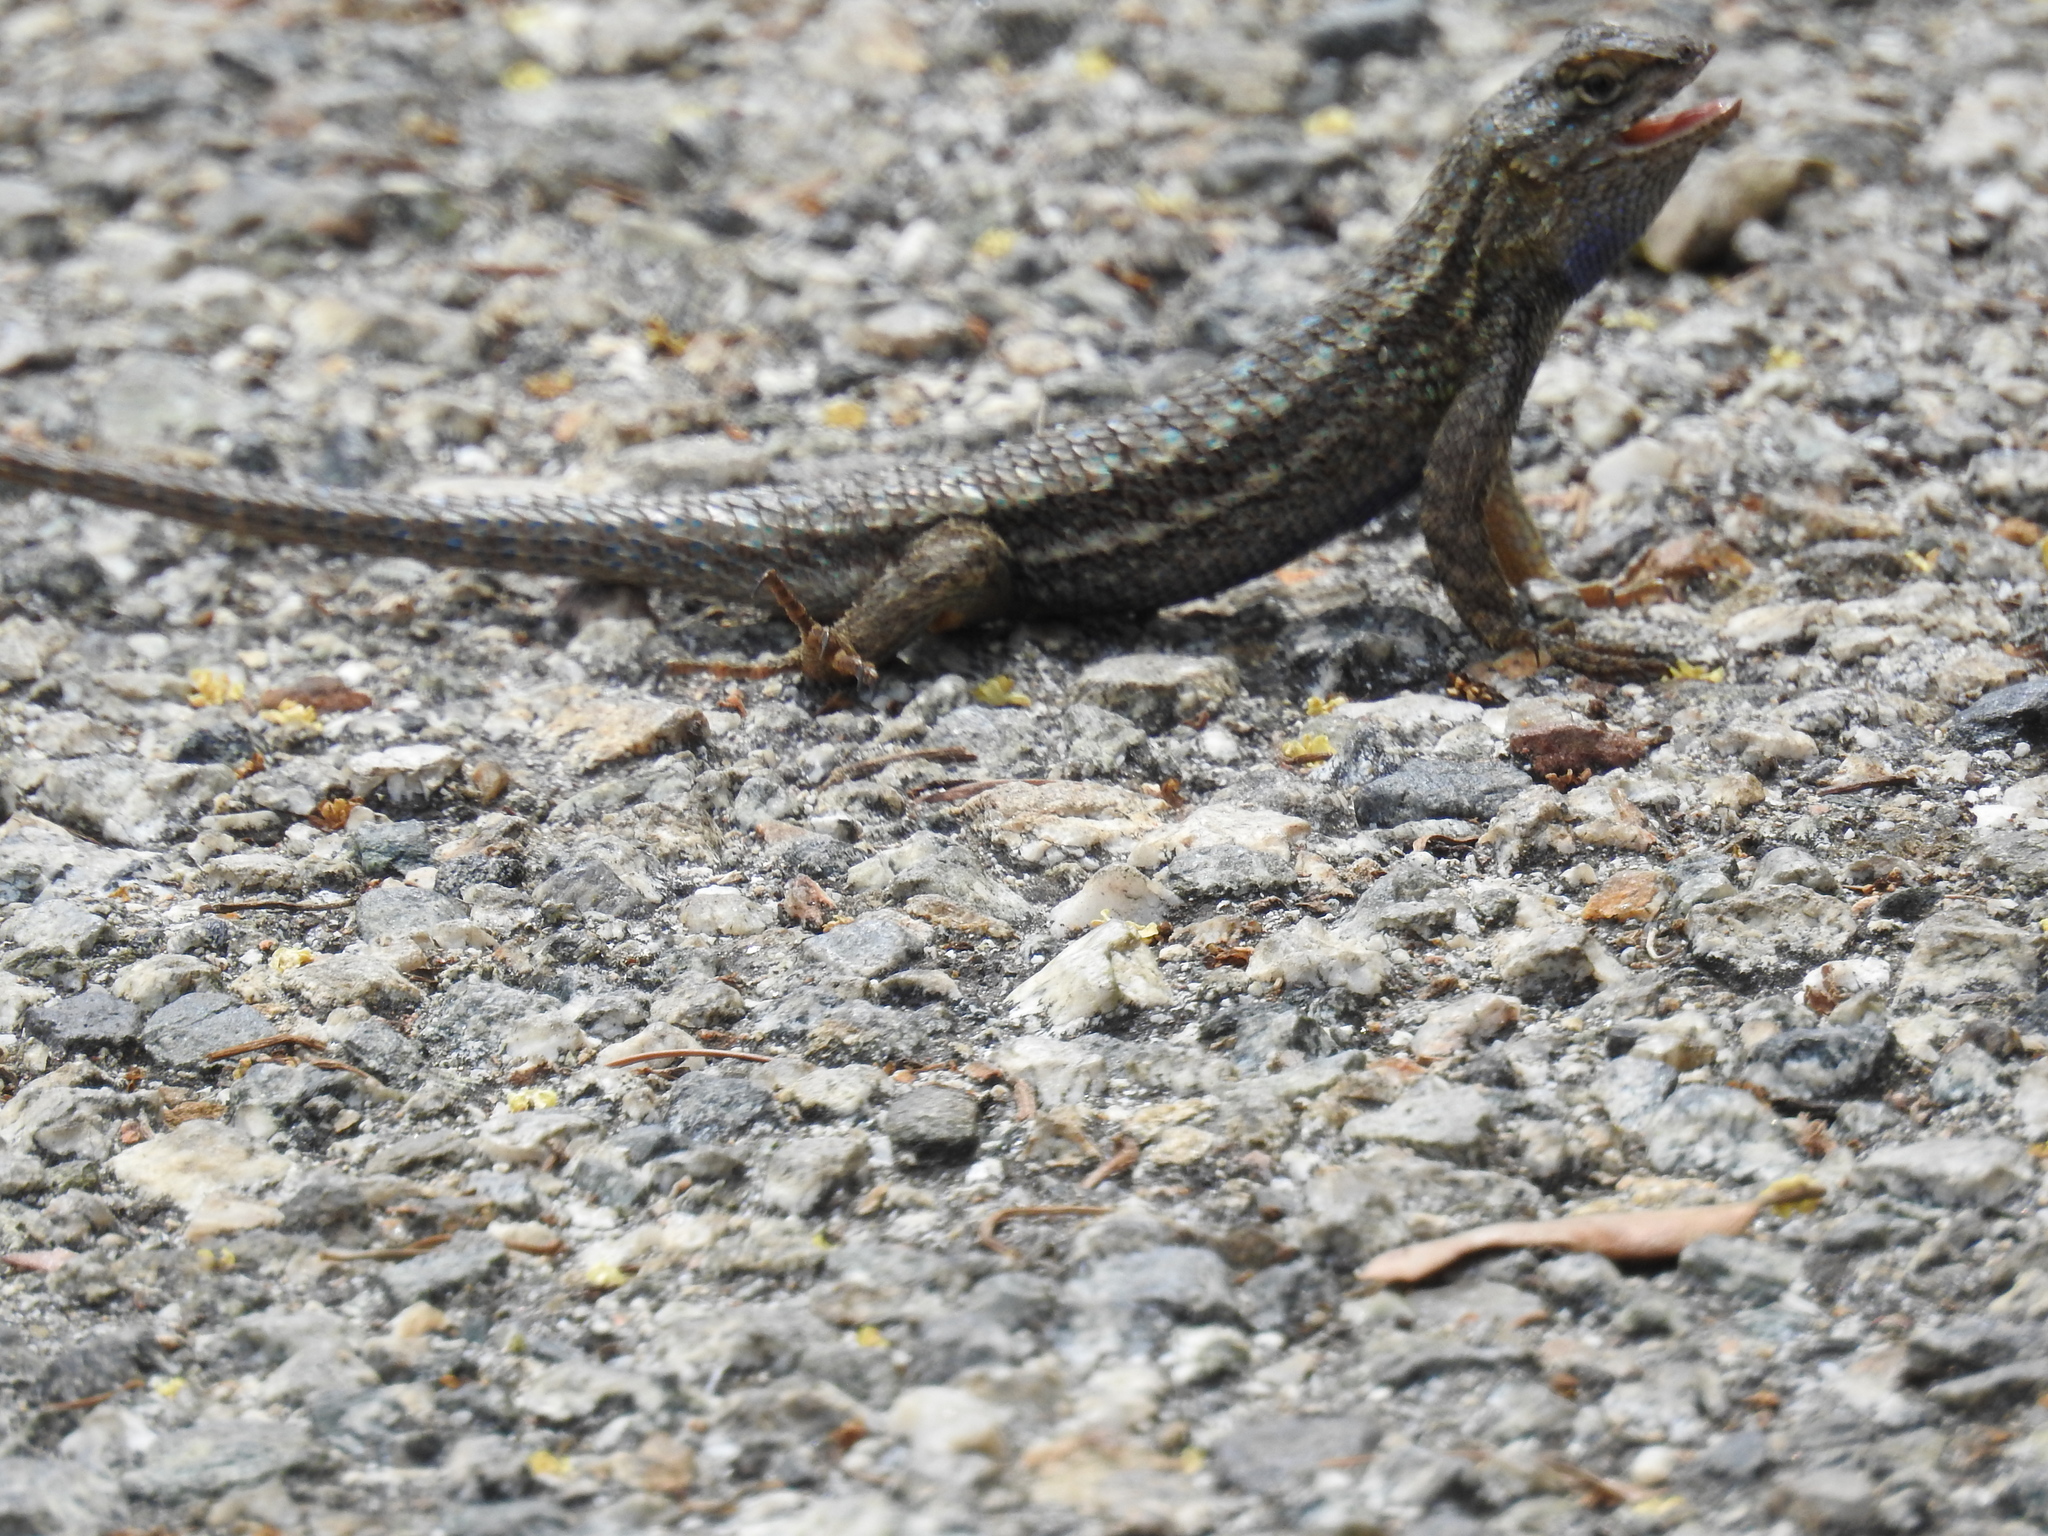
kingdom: Animalia
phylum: Chordata
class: Squamata
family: Phrynosomatidae
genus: Sceloporus
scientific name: Sceloporus occidentalis
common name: Western fence lizard
